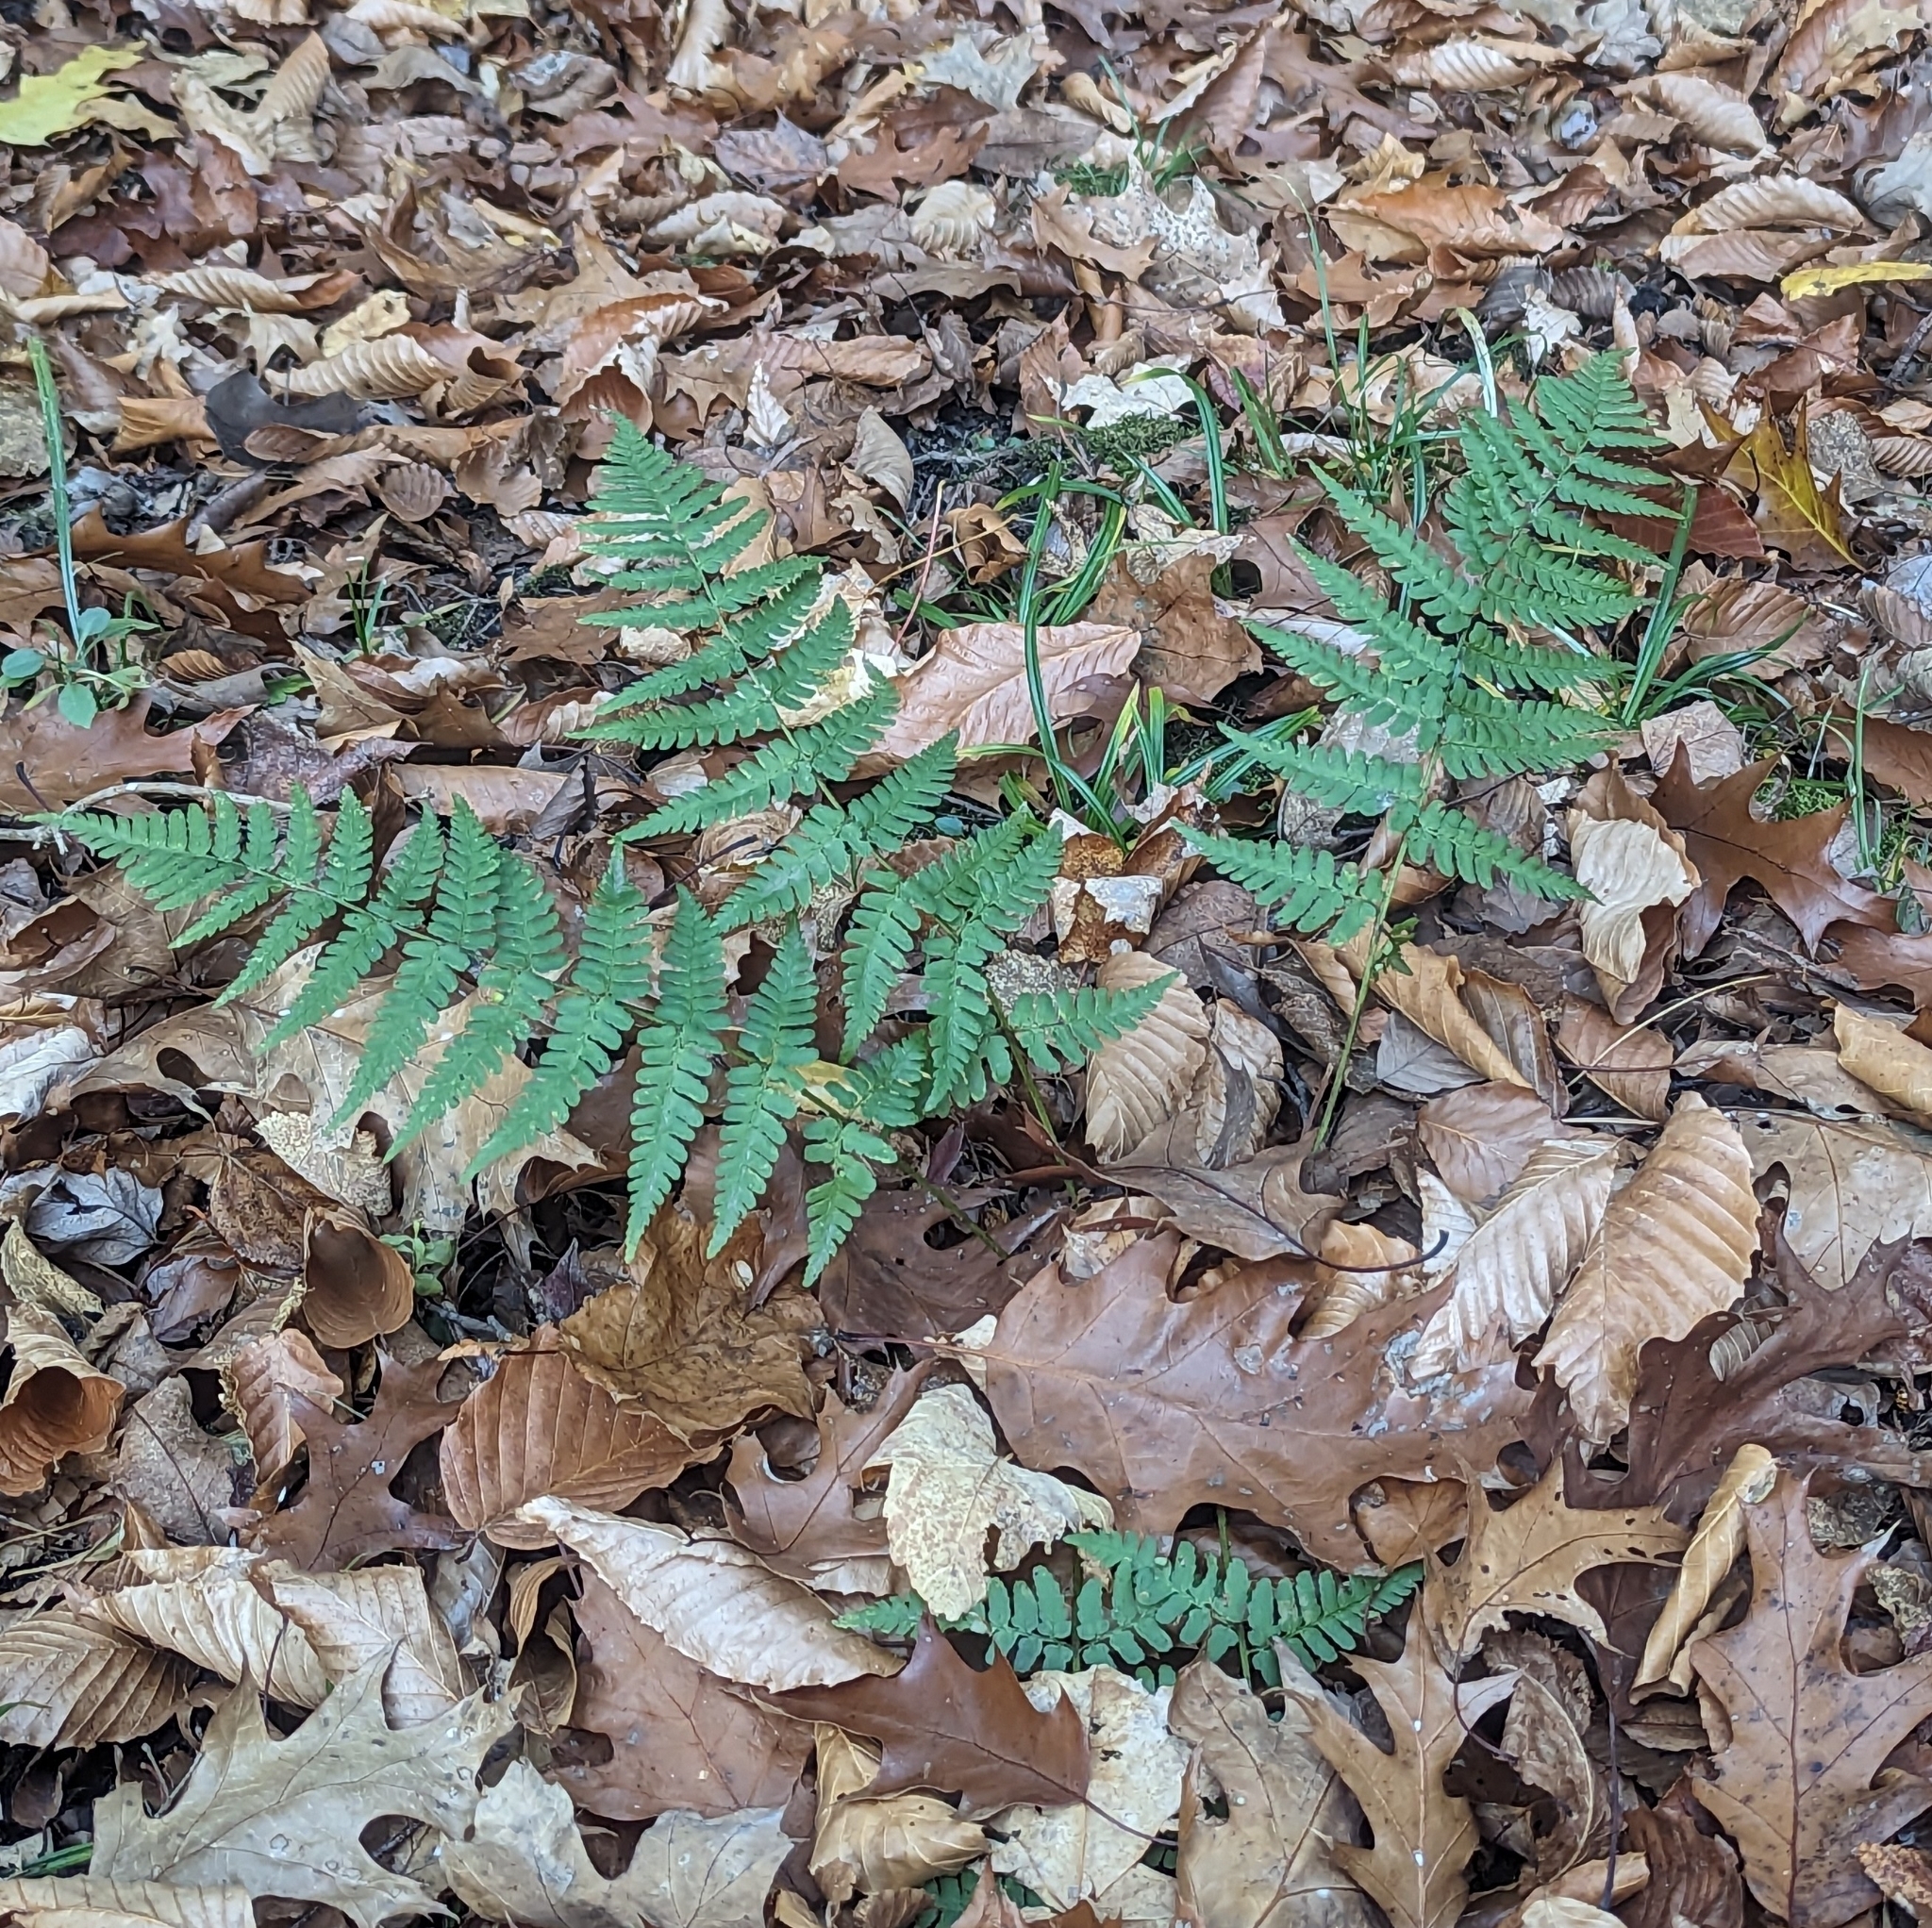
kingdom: Plantae
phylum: Tracheophyta
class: Polypodiopsida
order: Polypodiales
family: Dryopteridaceae
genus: Dryopteris
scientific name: Dryopteris marginalis
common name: Marginal wood fern
